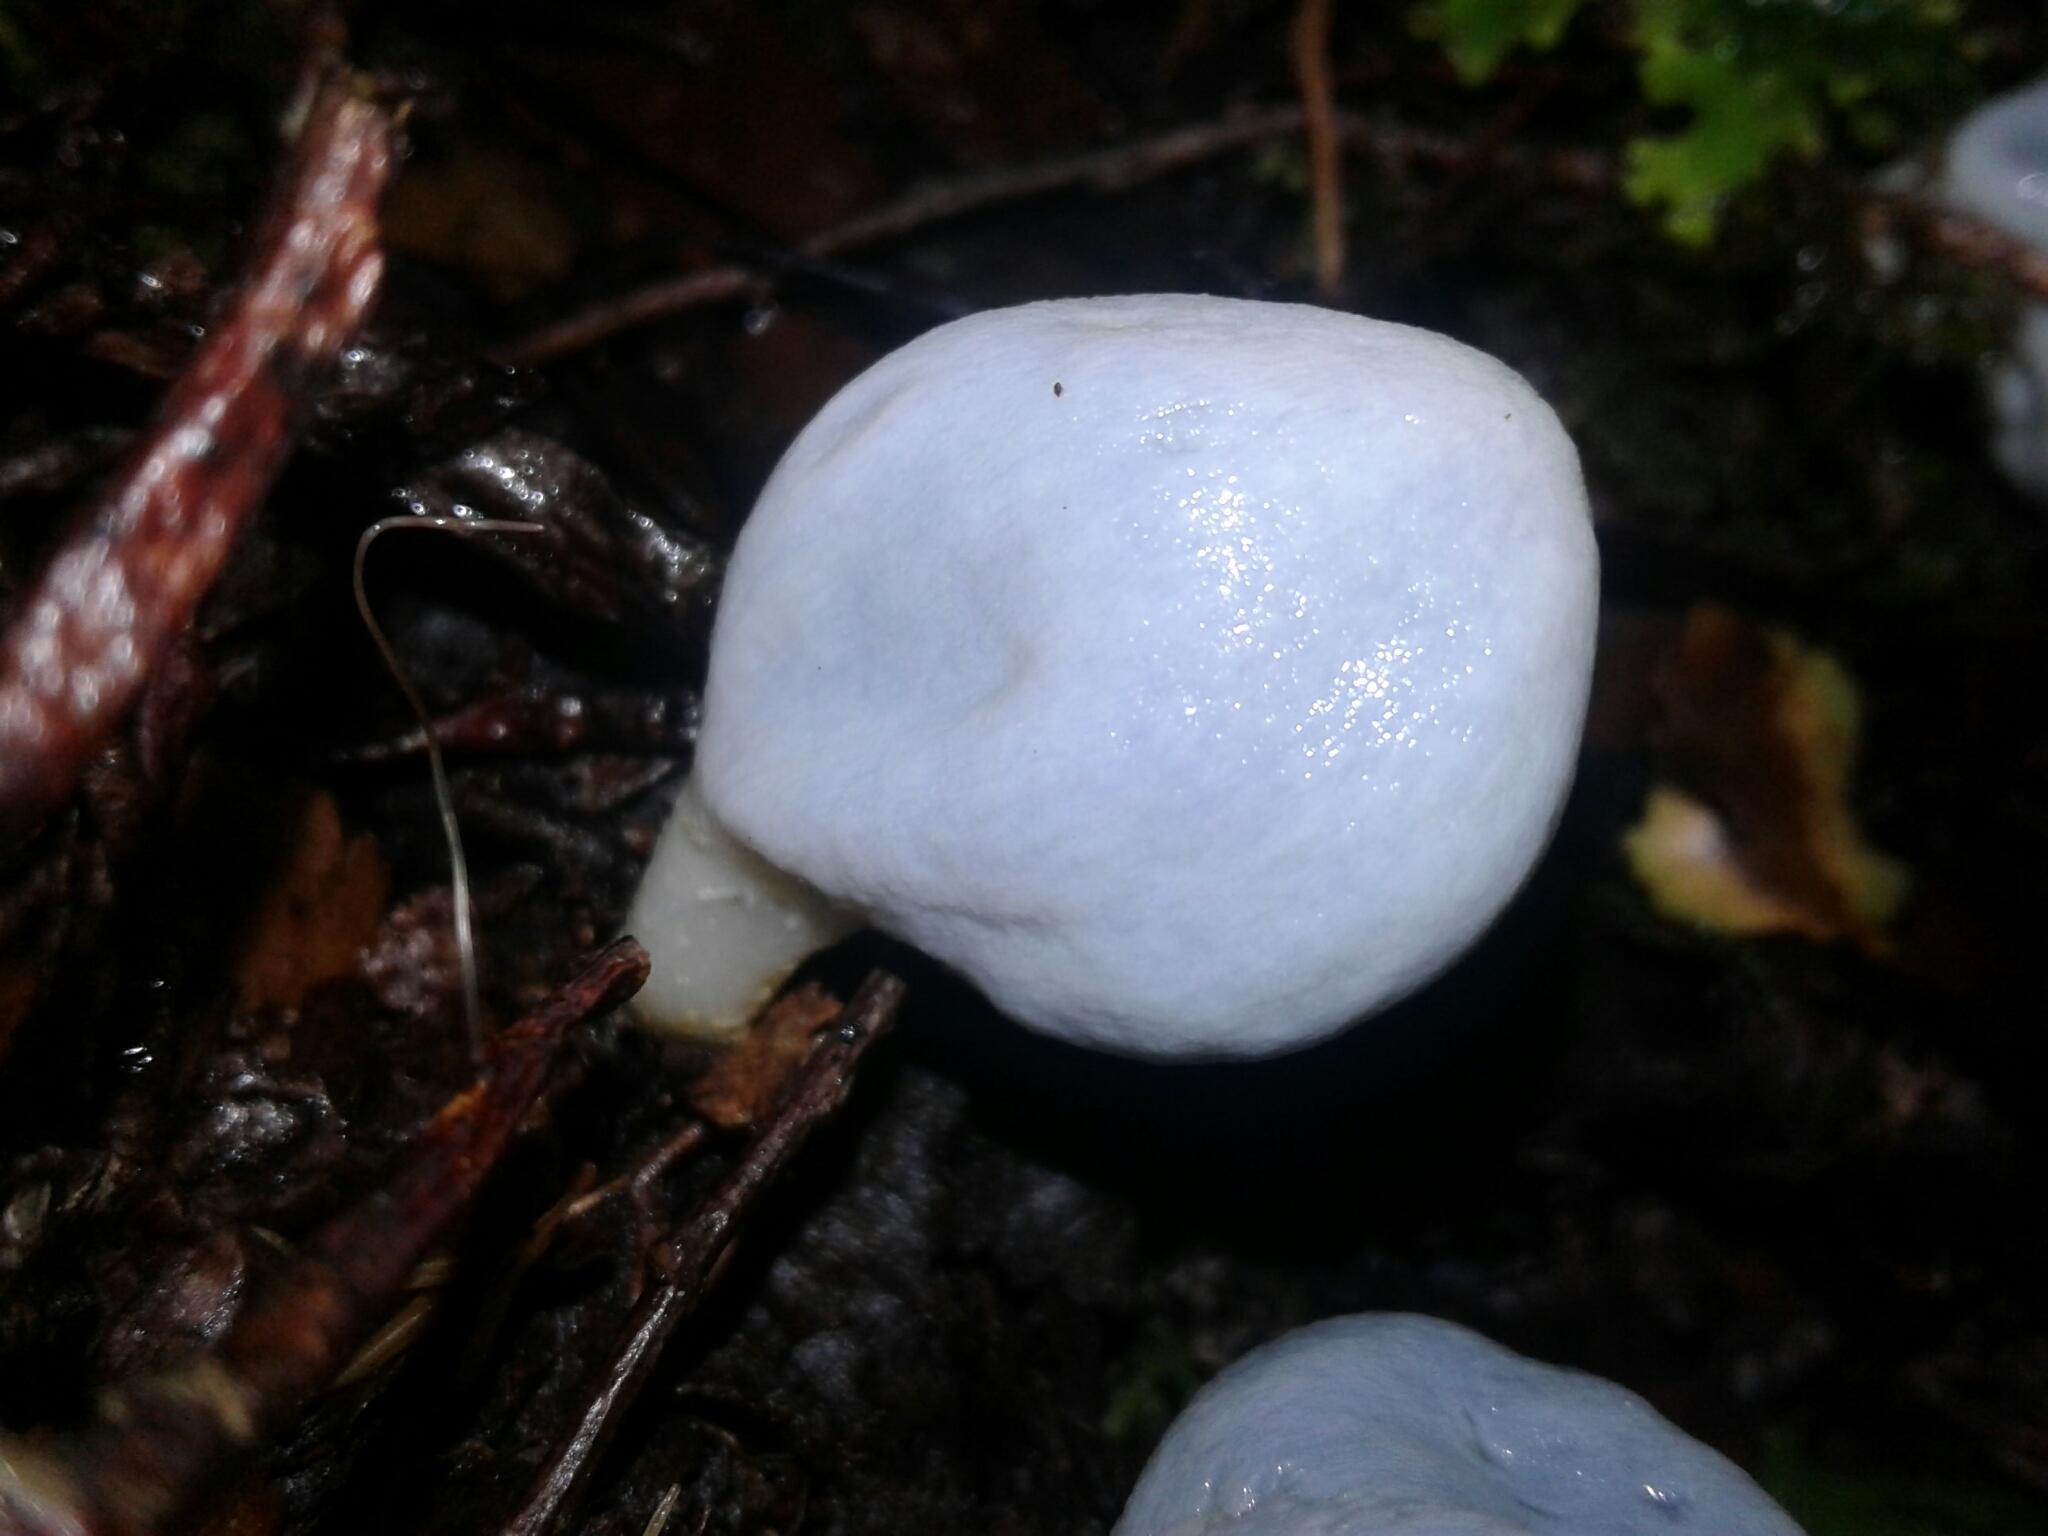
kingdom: Fungi
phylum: Basidiomycota
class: Agaricomycetes
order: Agaricales
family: Agaricaceae
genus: Clavogaster
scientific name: Clavogaster virescens
